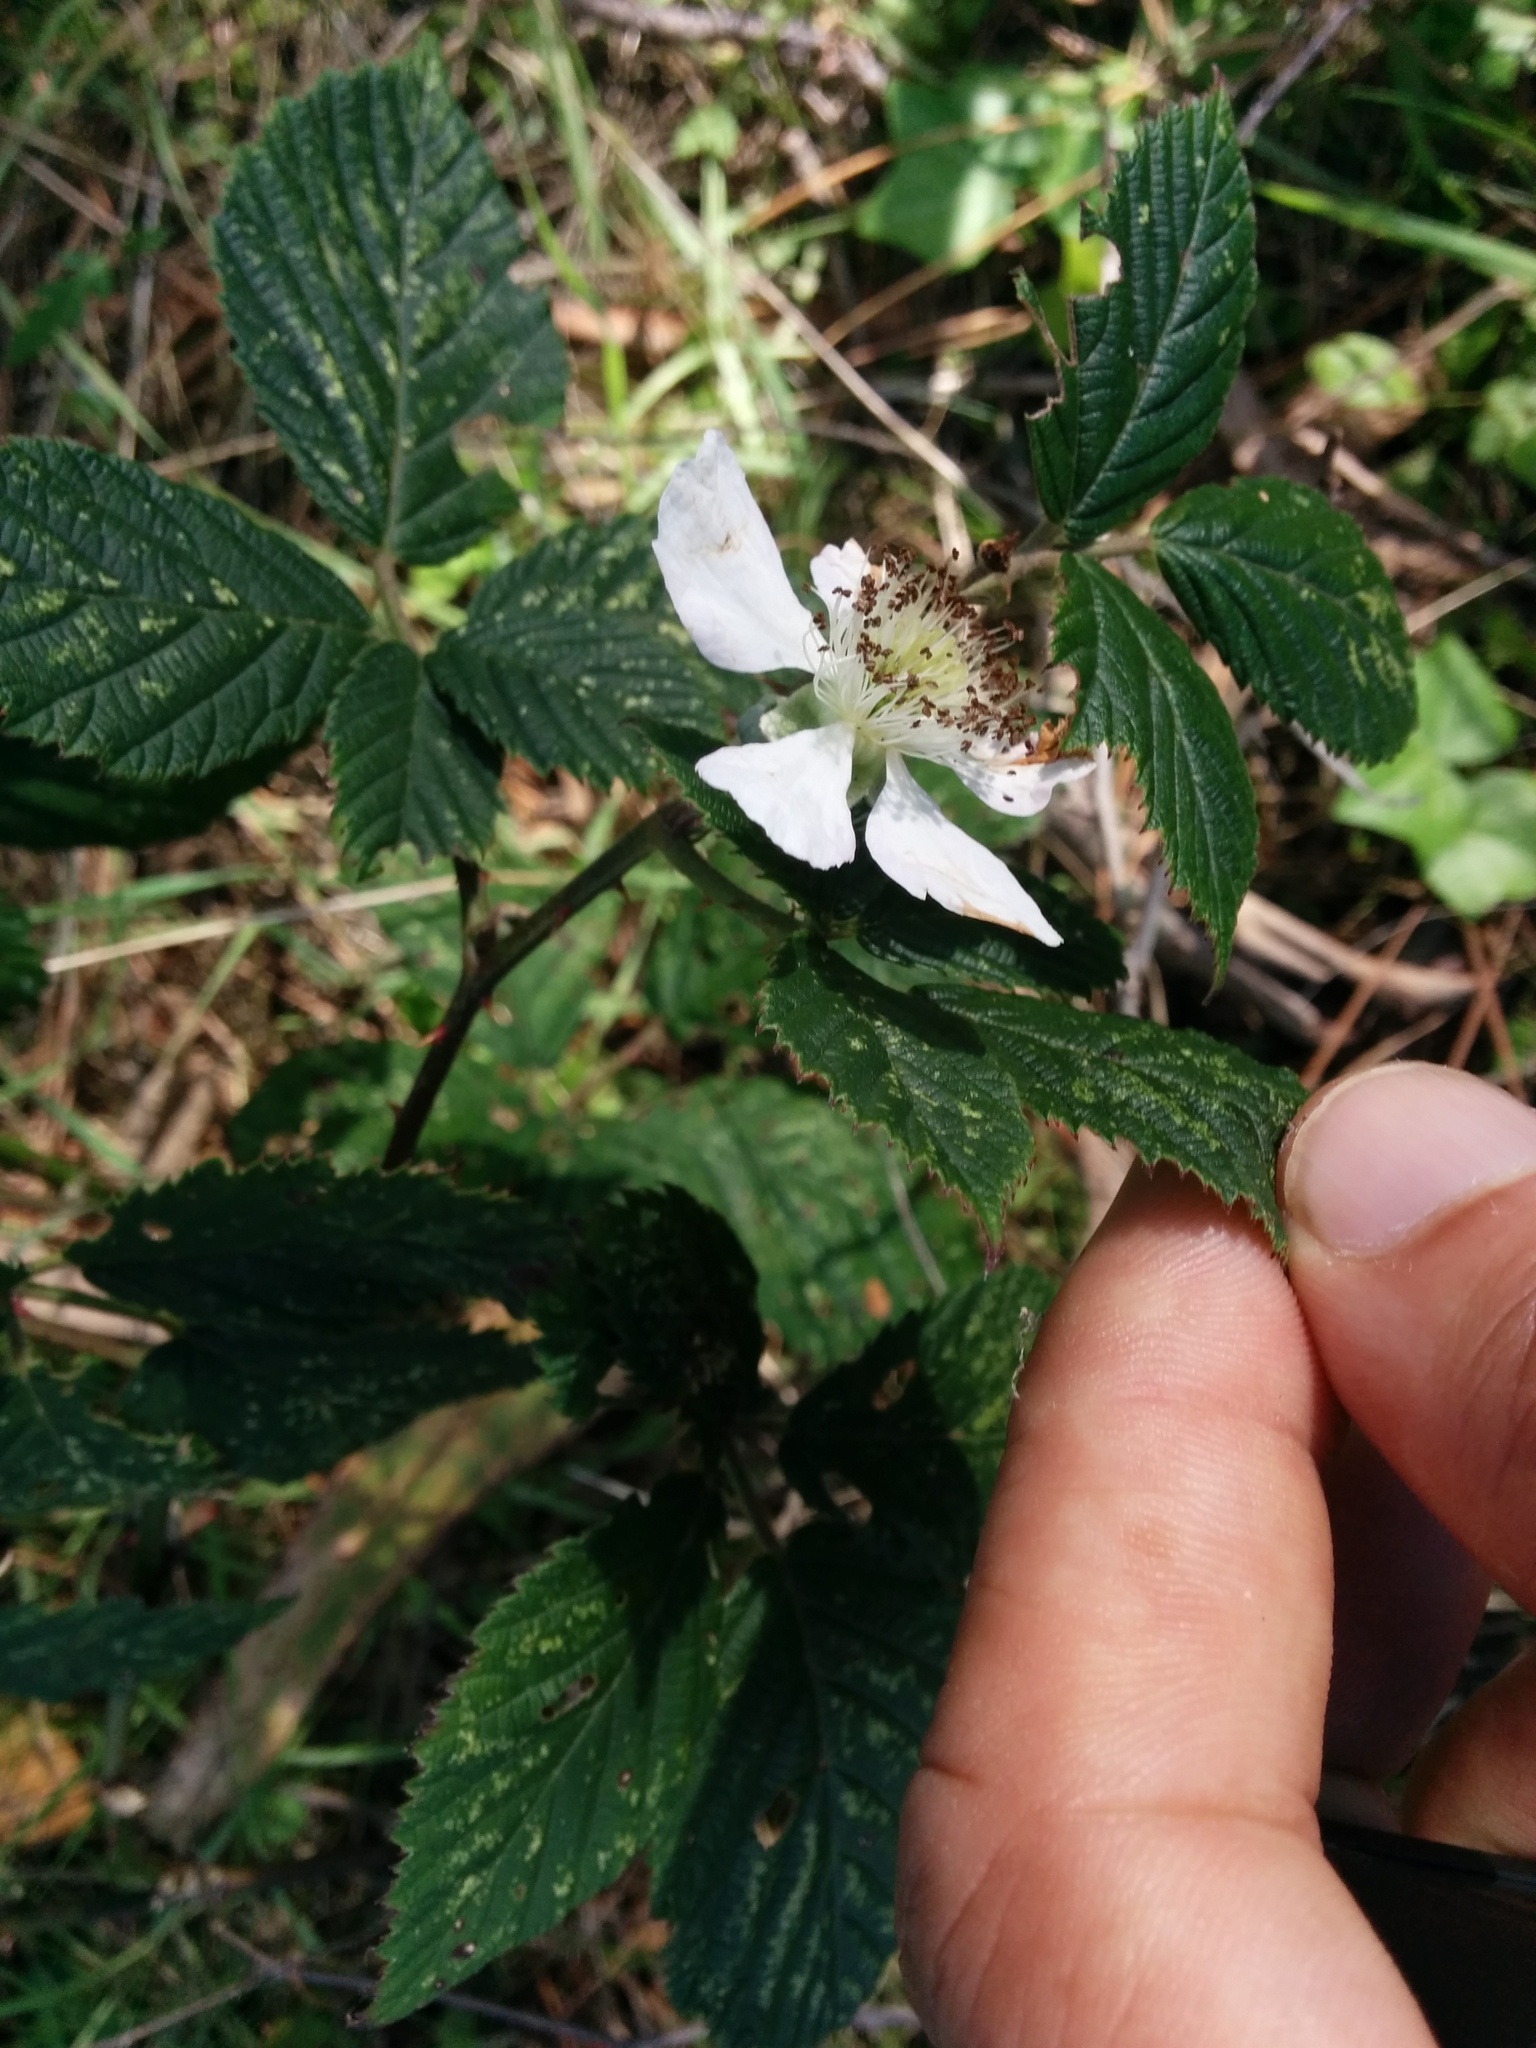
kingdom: Plantae
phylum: Tracheophyta
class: Magnoliopsida
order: Rosales
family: Rosaceae
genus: Rubus
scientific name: Rubus armeniacus
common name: Himalayan blackberry
